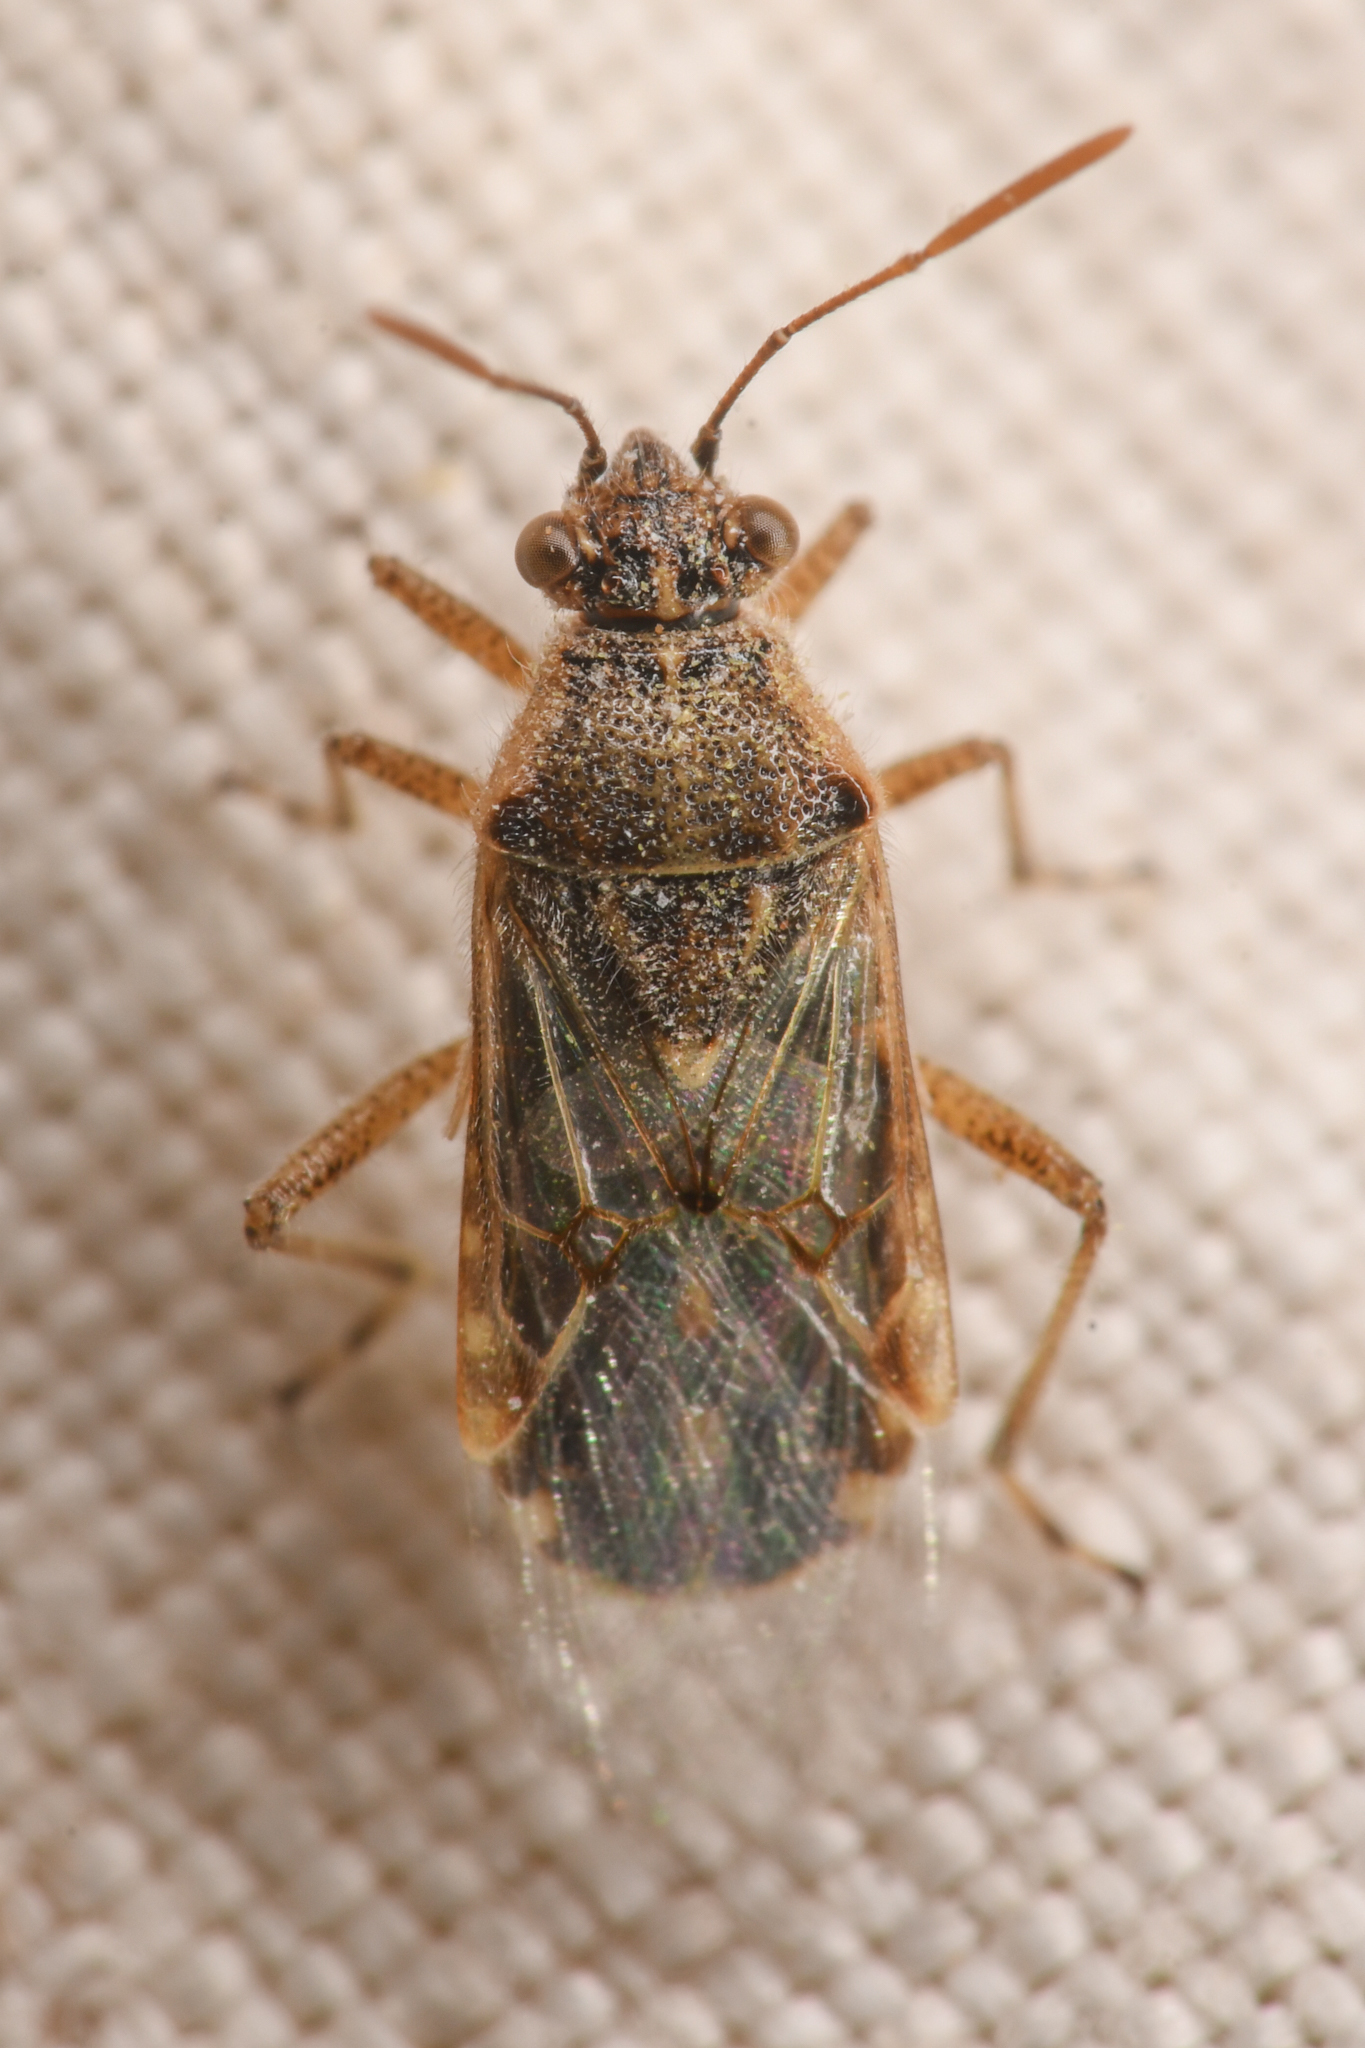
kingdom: Animalia
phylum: Arthropoda
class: Insecta
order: Hemiptera
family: Rhopalidae
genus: Liorhyssus
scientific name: Liorhyssus hyalinus
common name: Scentless plant bug
